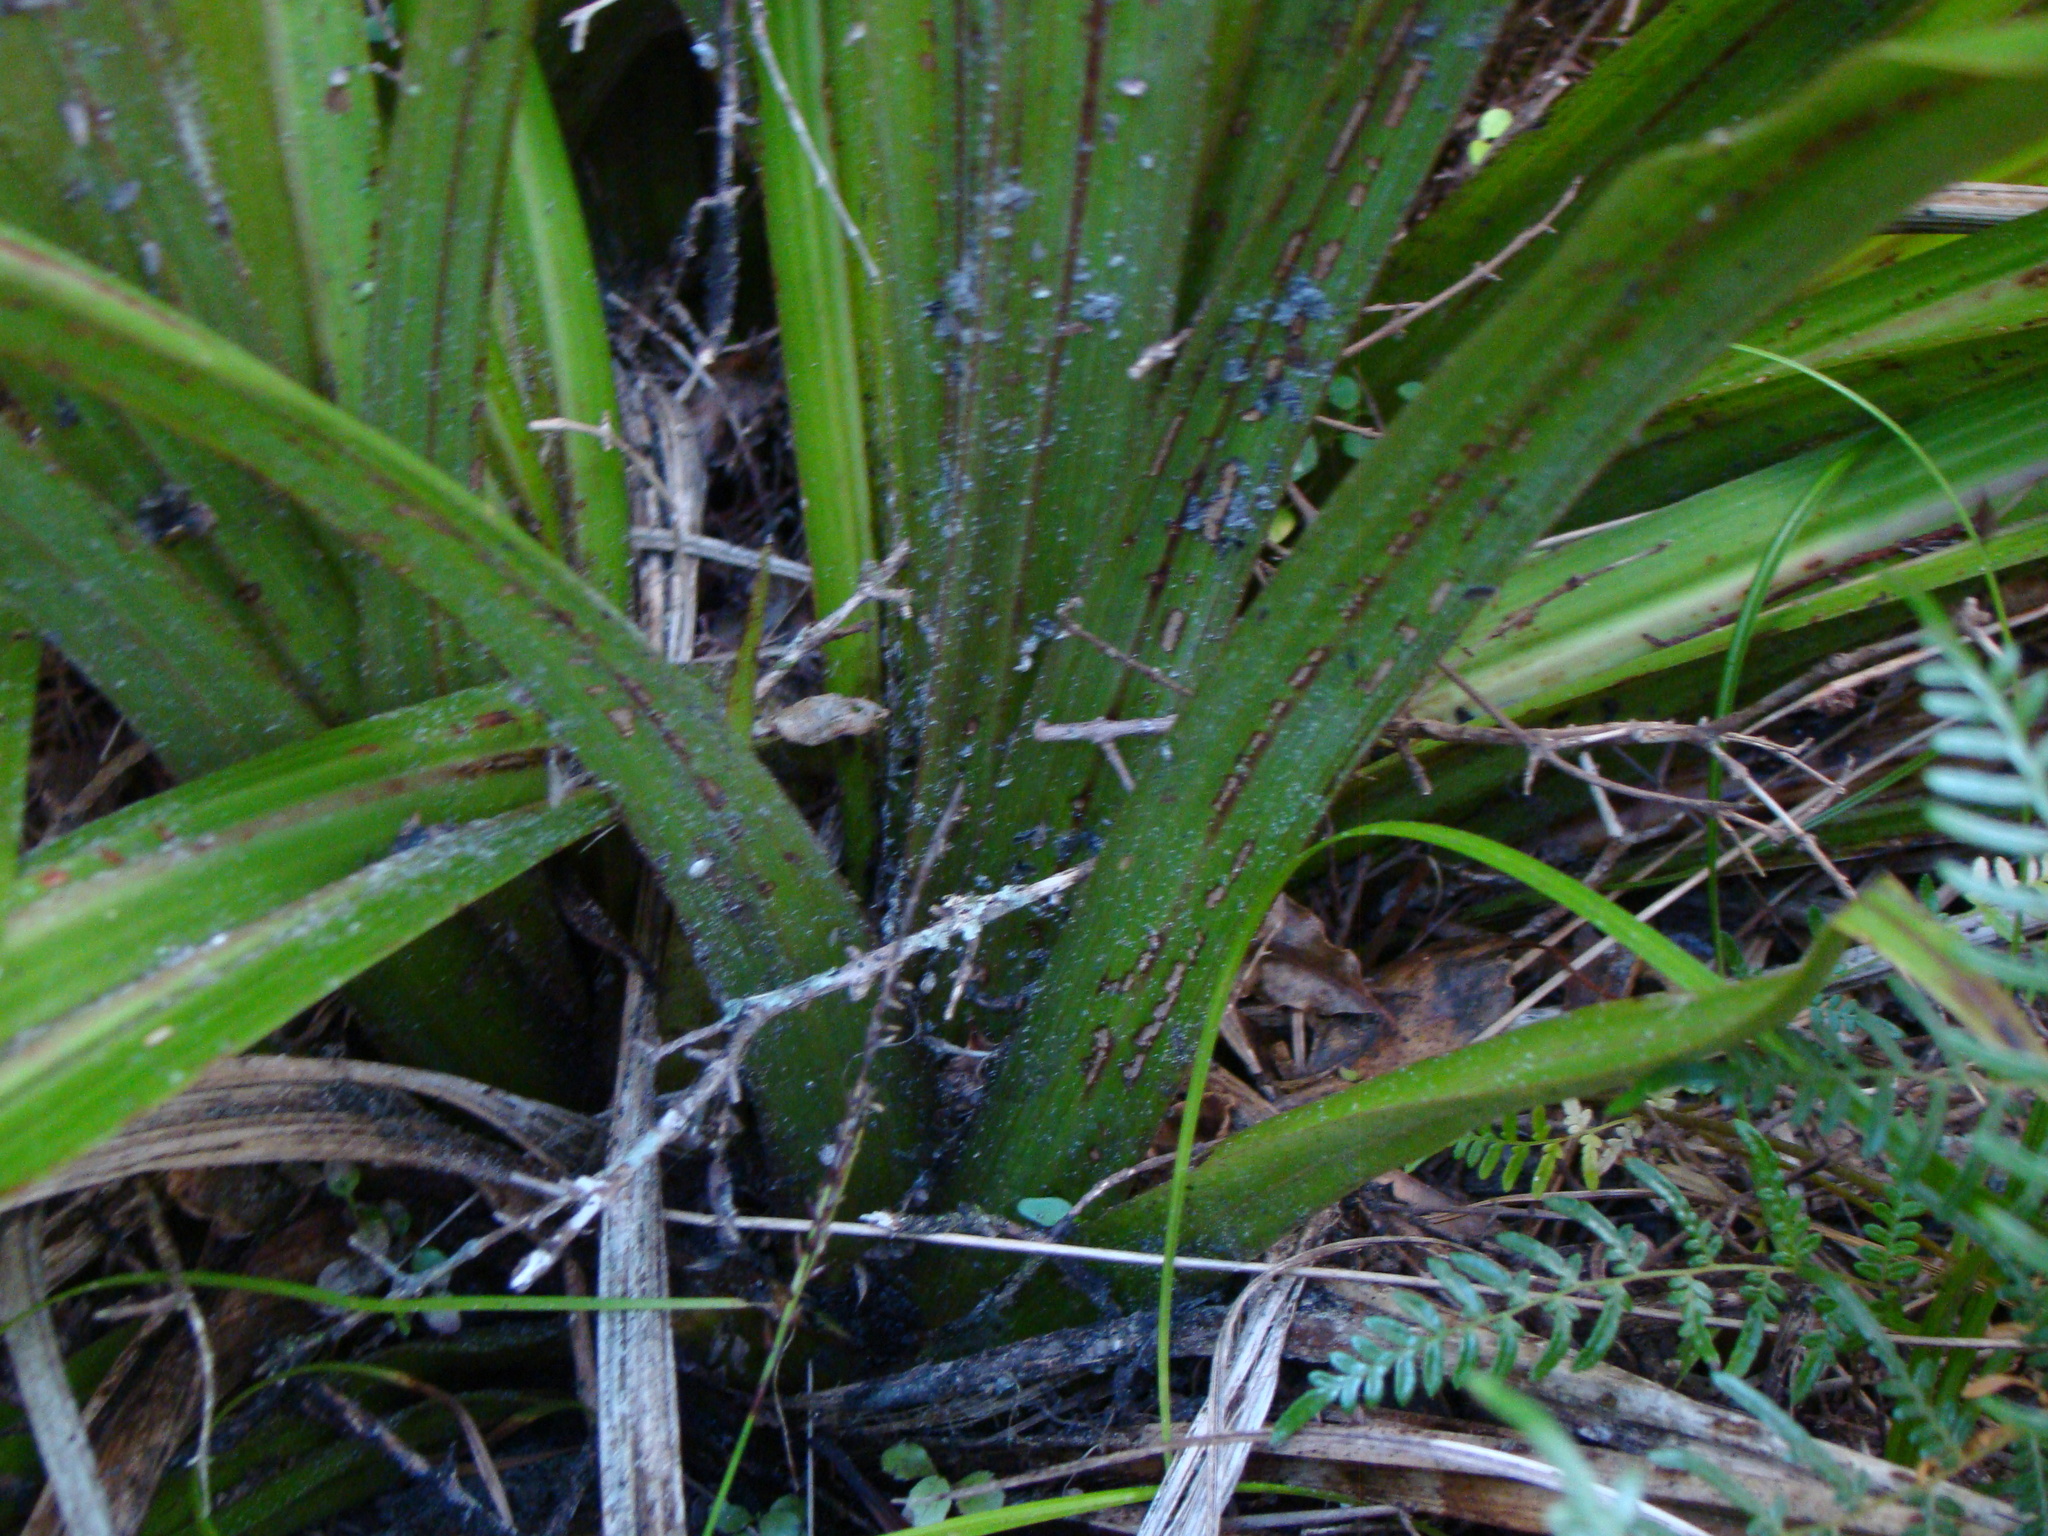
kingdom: Plantae
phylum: Tracheophyta
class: Liliopsida
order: Asparagales
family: Asteliaceae
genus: Astelia
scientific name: Astelia fragrans
